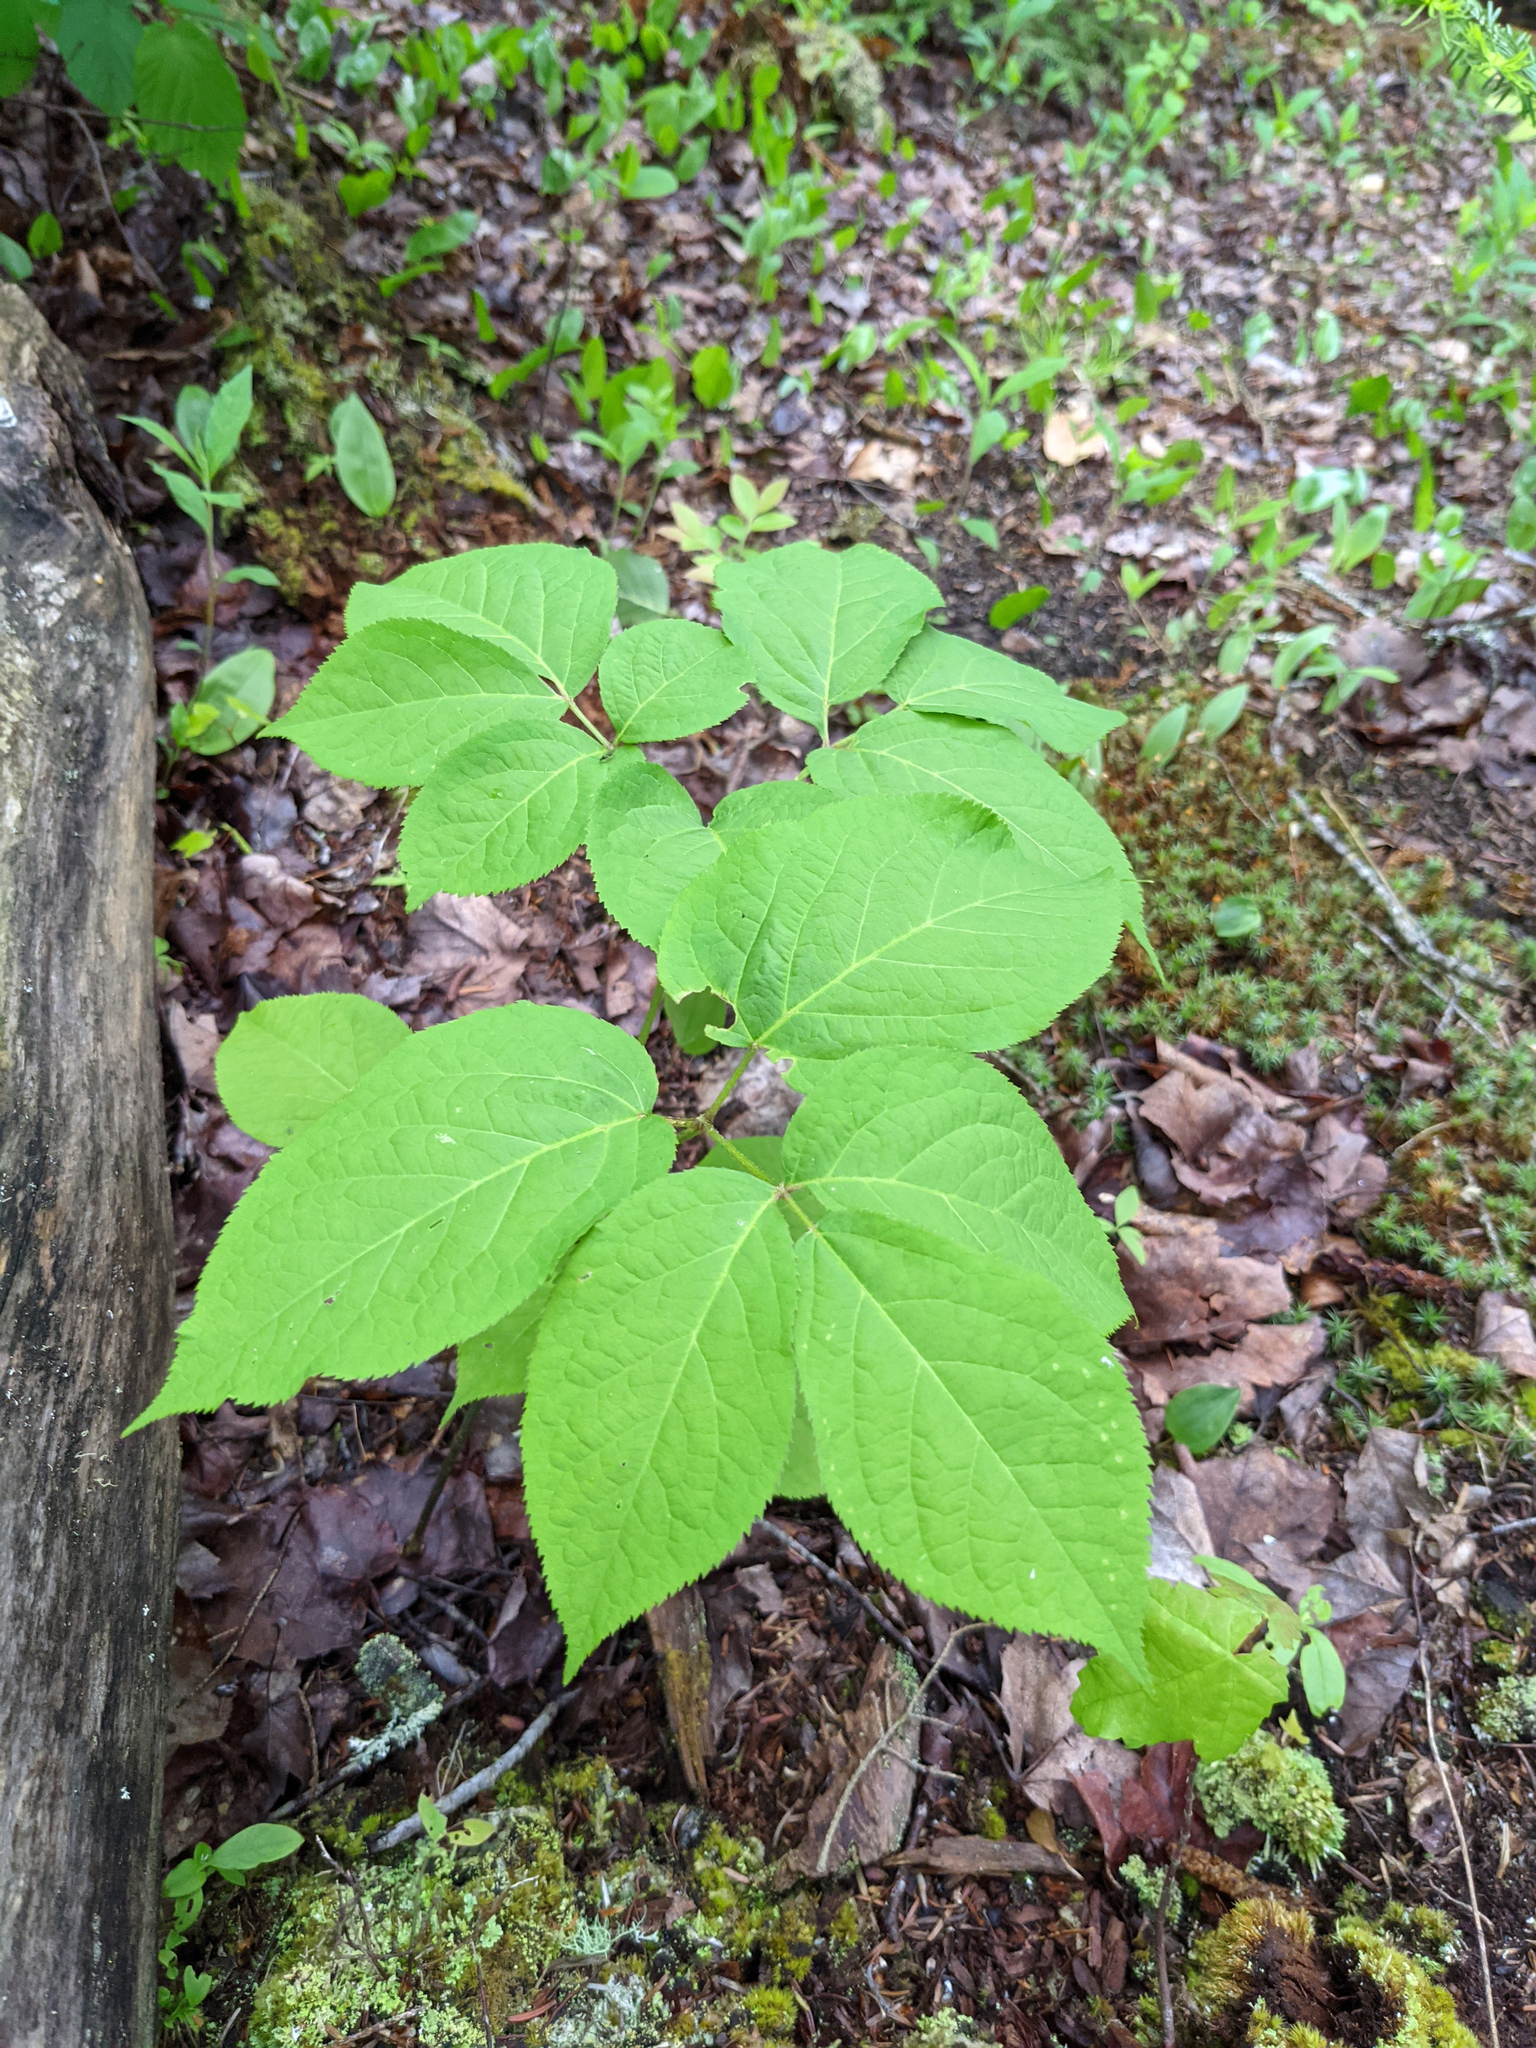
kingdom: Plantae
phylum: Tracheophyta
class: Magnoliopsida
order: Apiales
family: Araliaceae
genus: Aralia
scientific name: Aralia nudicaulis
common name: Wild sarsaparilla
